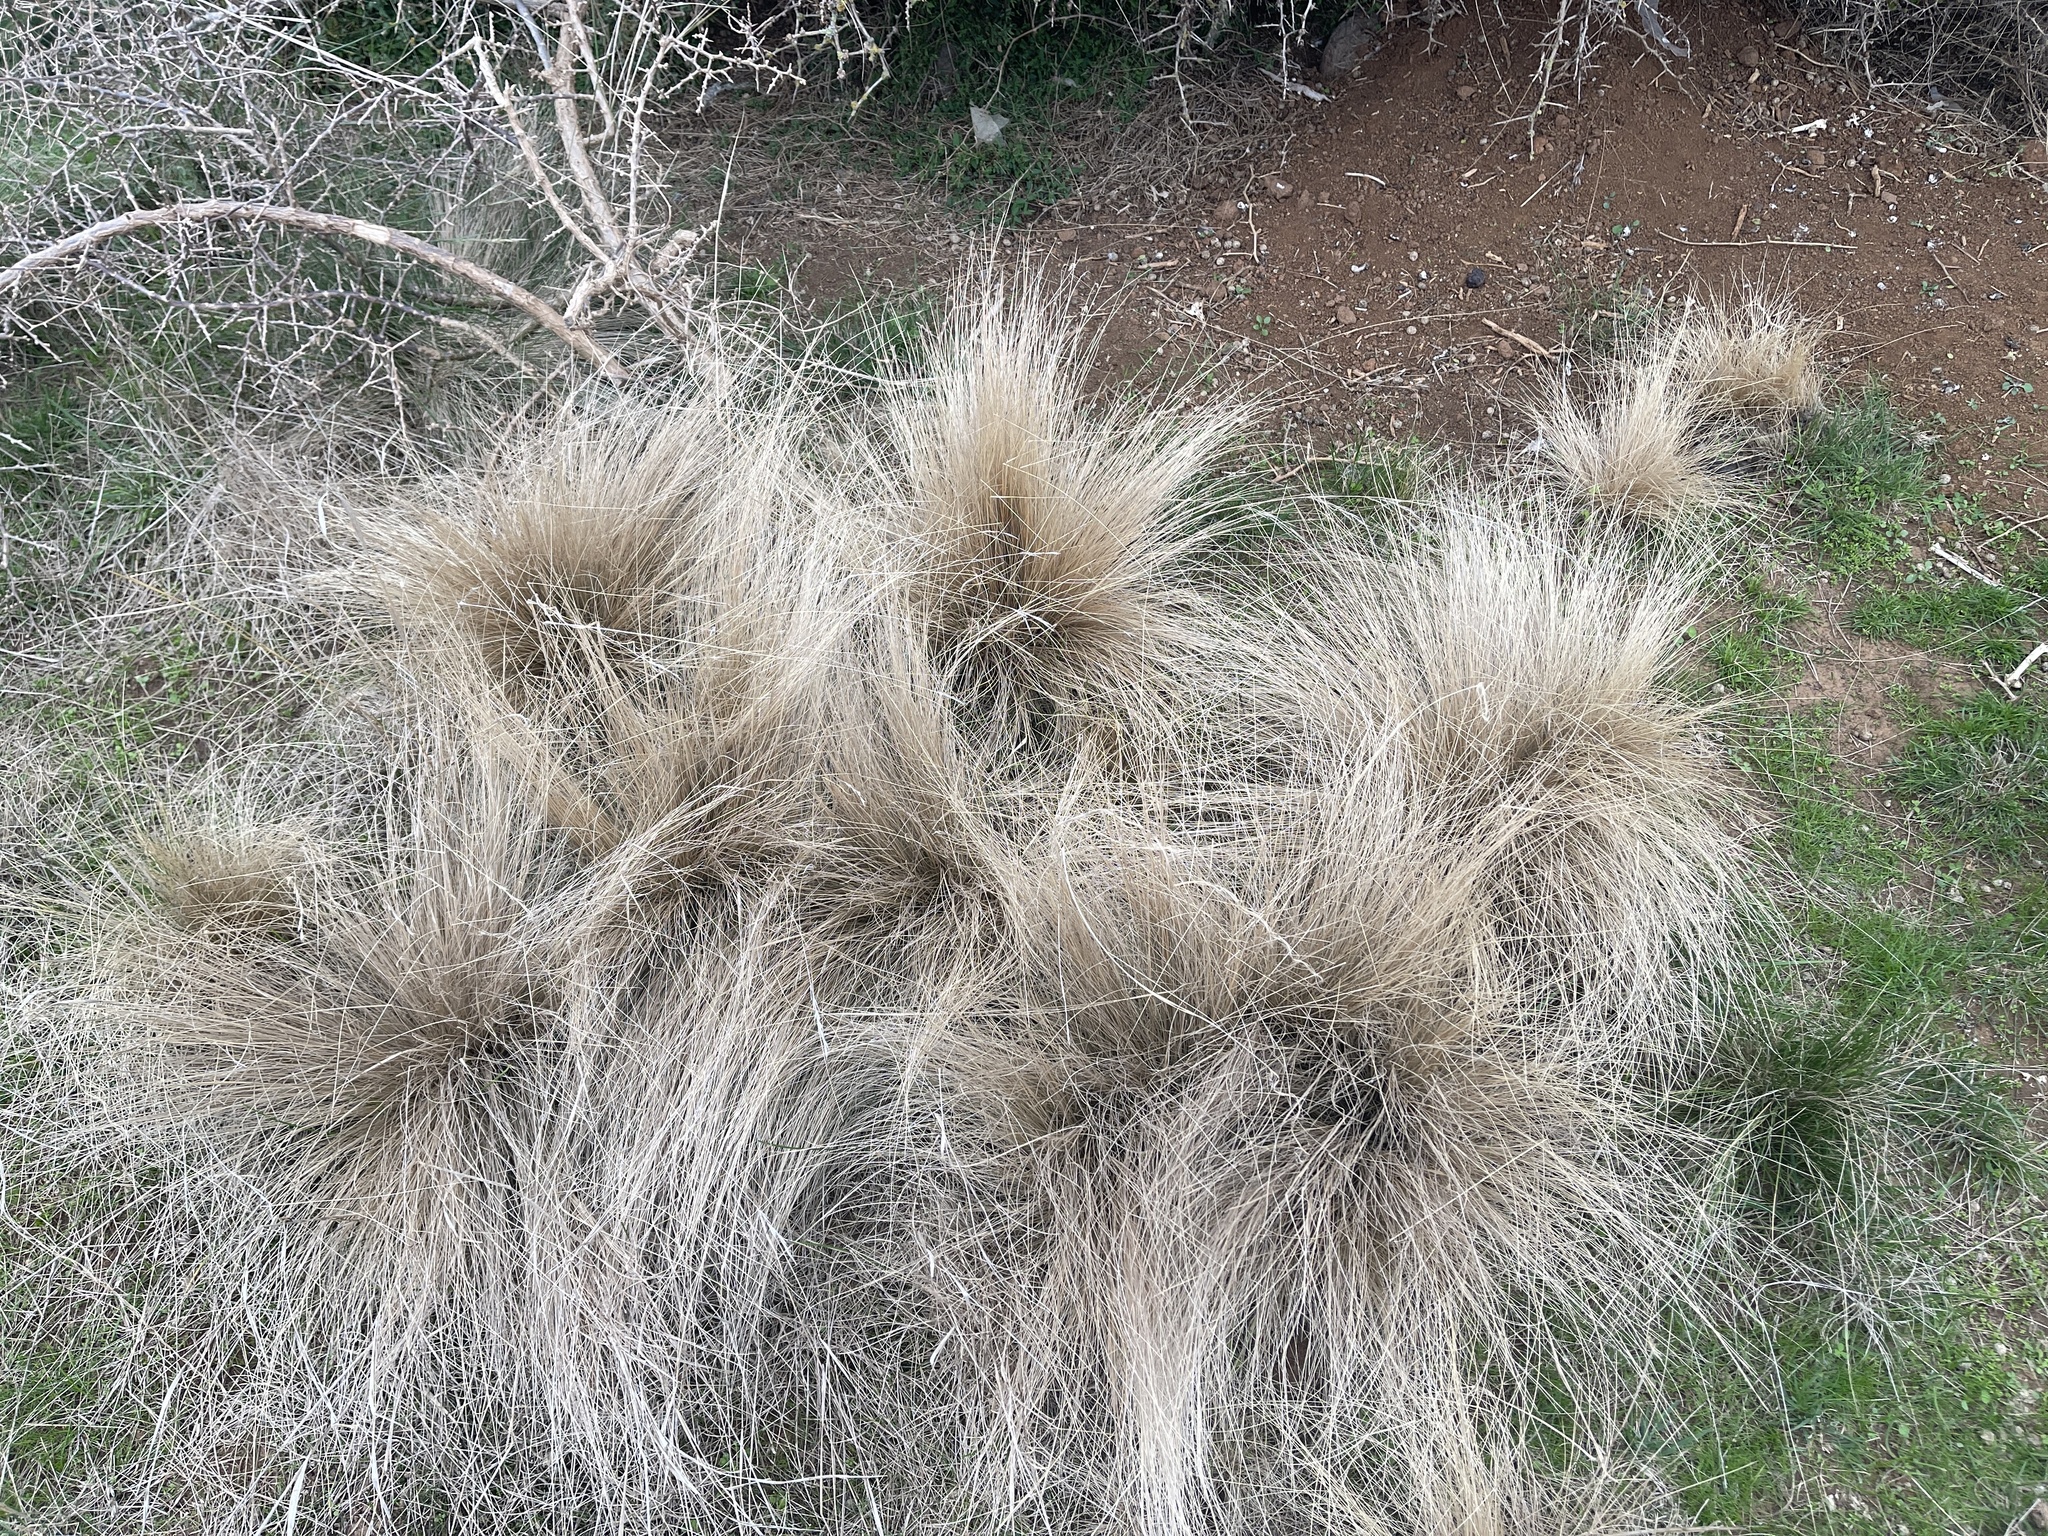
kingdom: Plantae
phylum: Tracheophyta
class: Liliopsida
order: Poales
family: Poaceae
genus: Nassella
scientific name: Nassella trichotoma
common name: Serrated tussock grass
